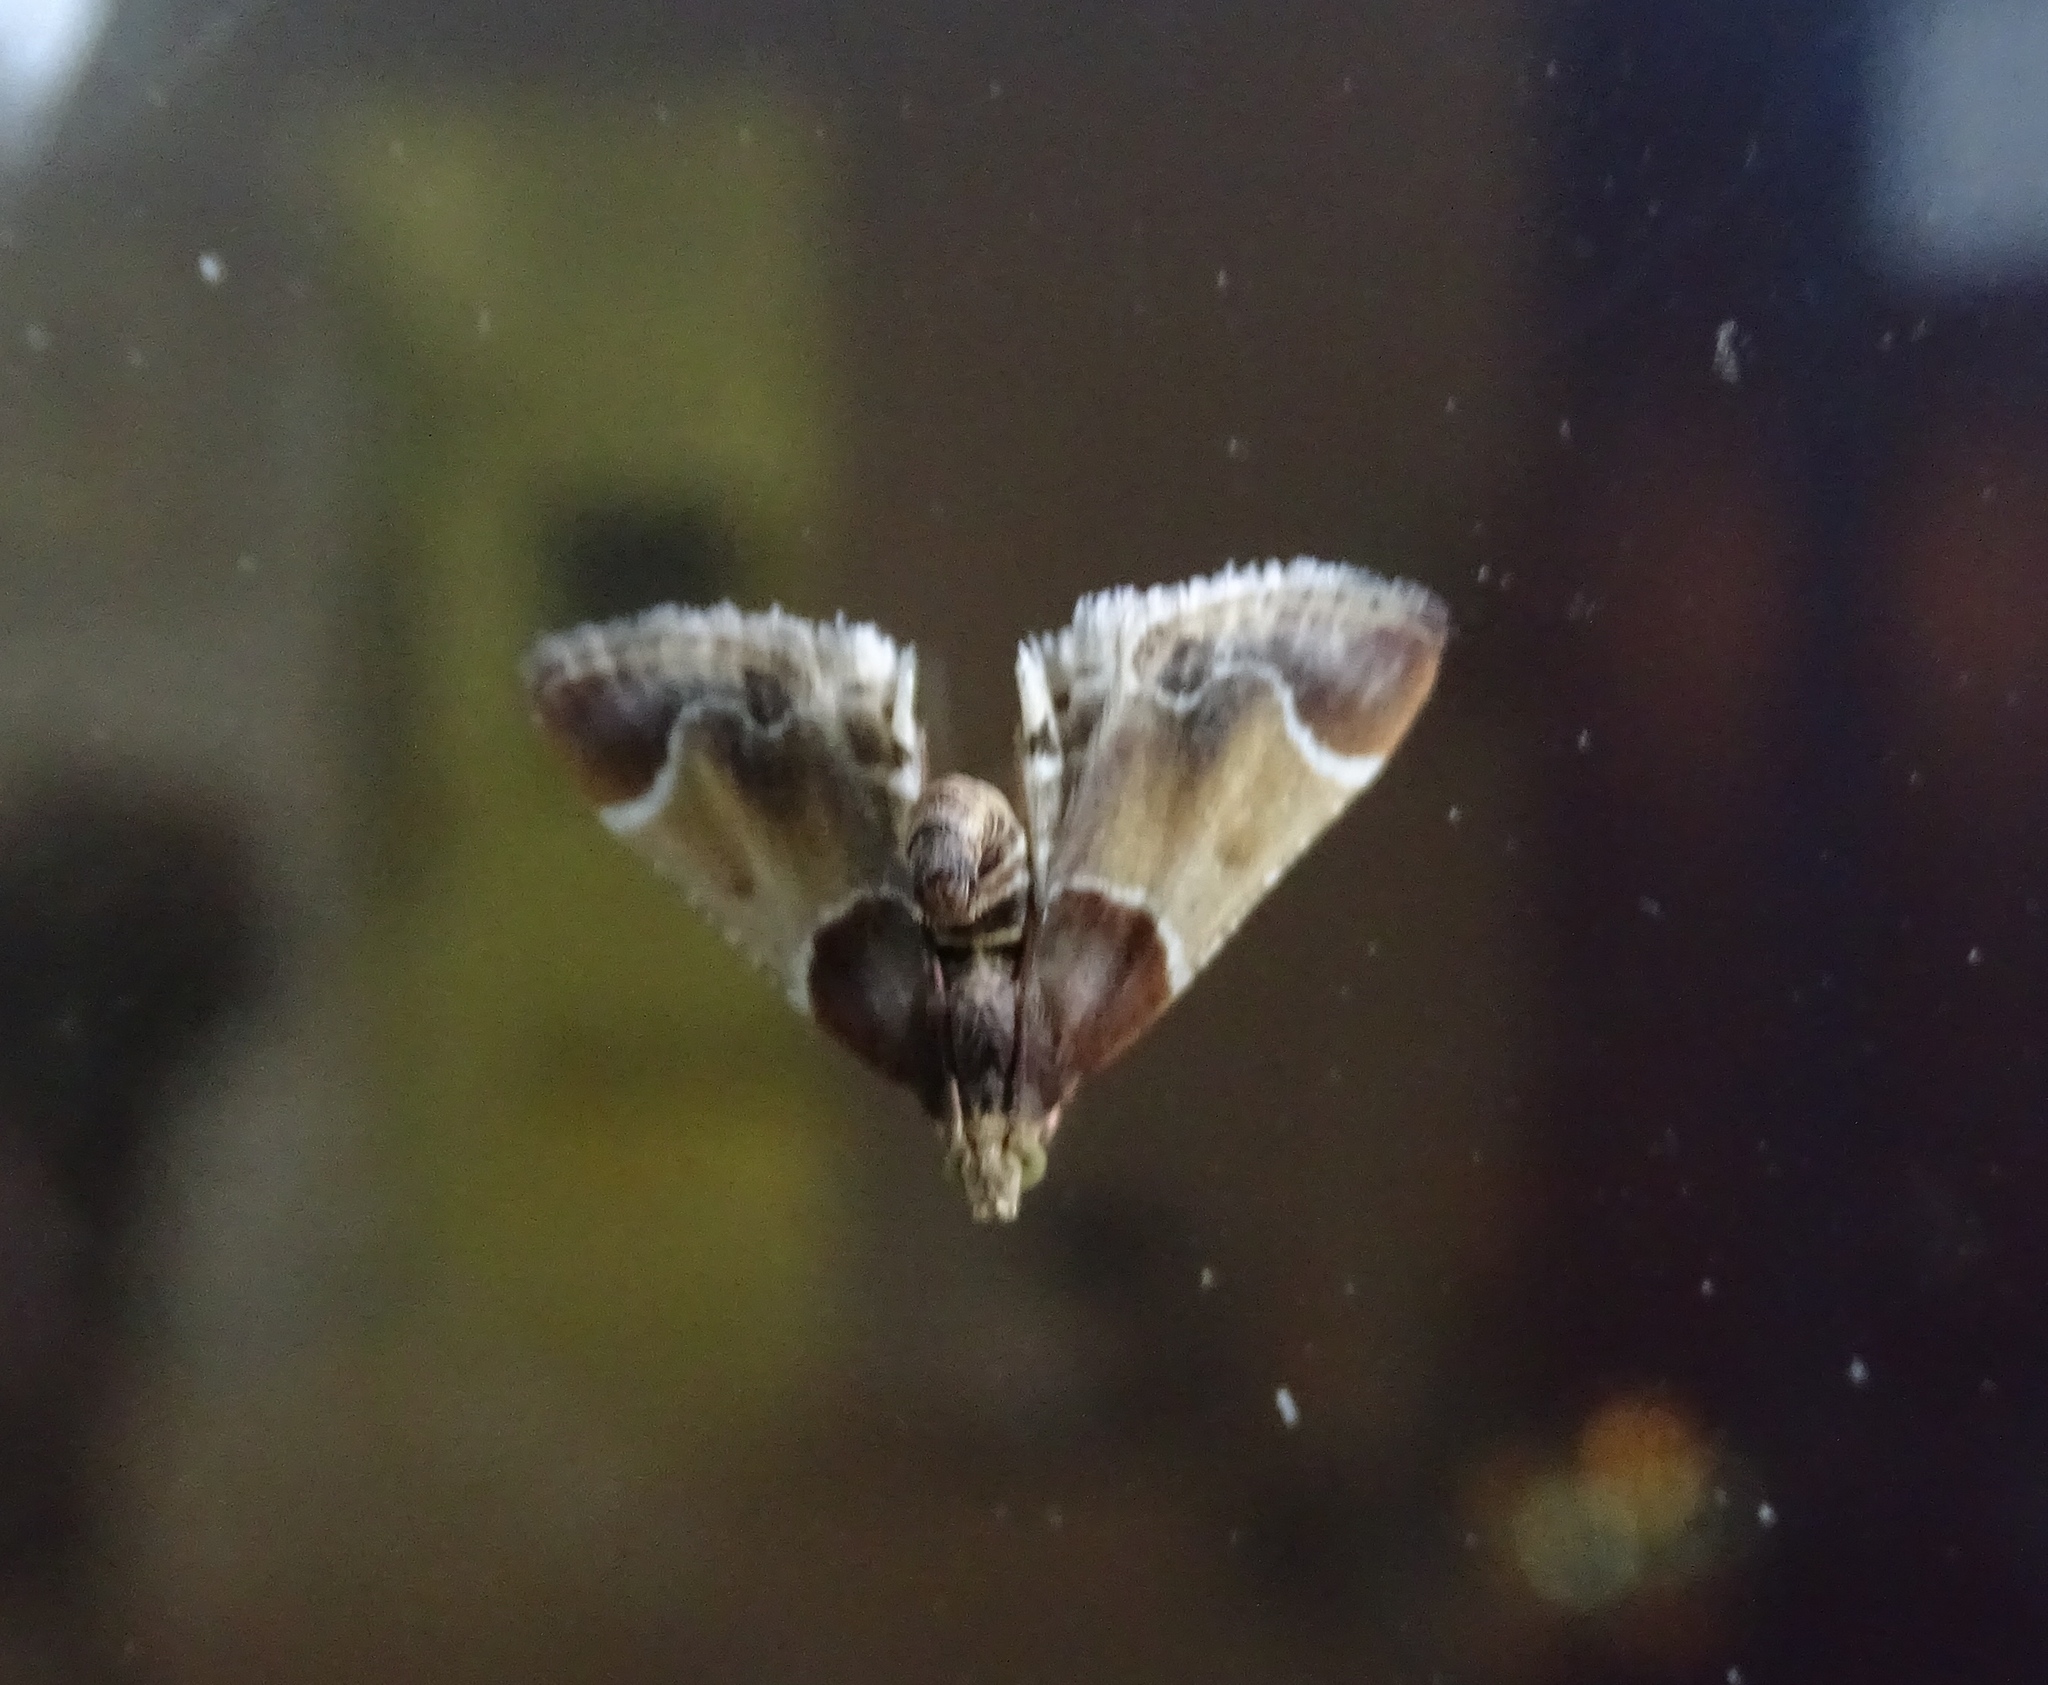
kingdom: Animalia
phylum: Arthropoda
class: Insecta
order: Lepidoptera
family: Pyralidae
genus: Pyralis
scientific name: Pyralis farinalis
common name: Meal moth
